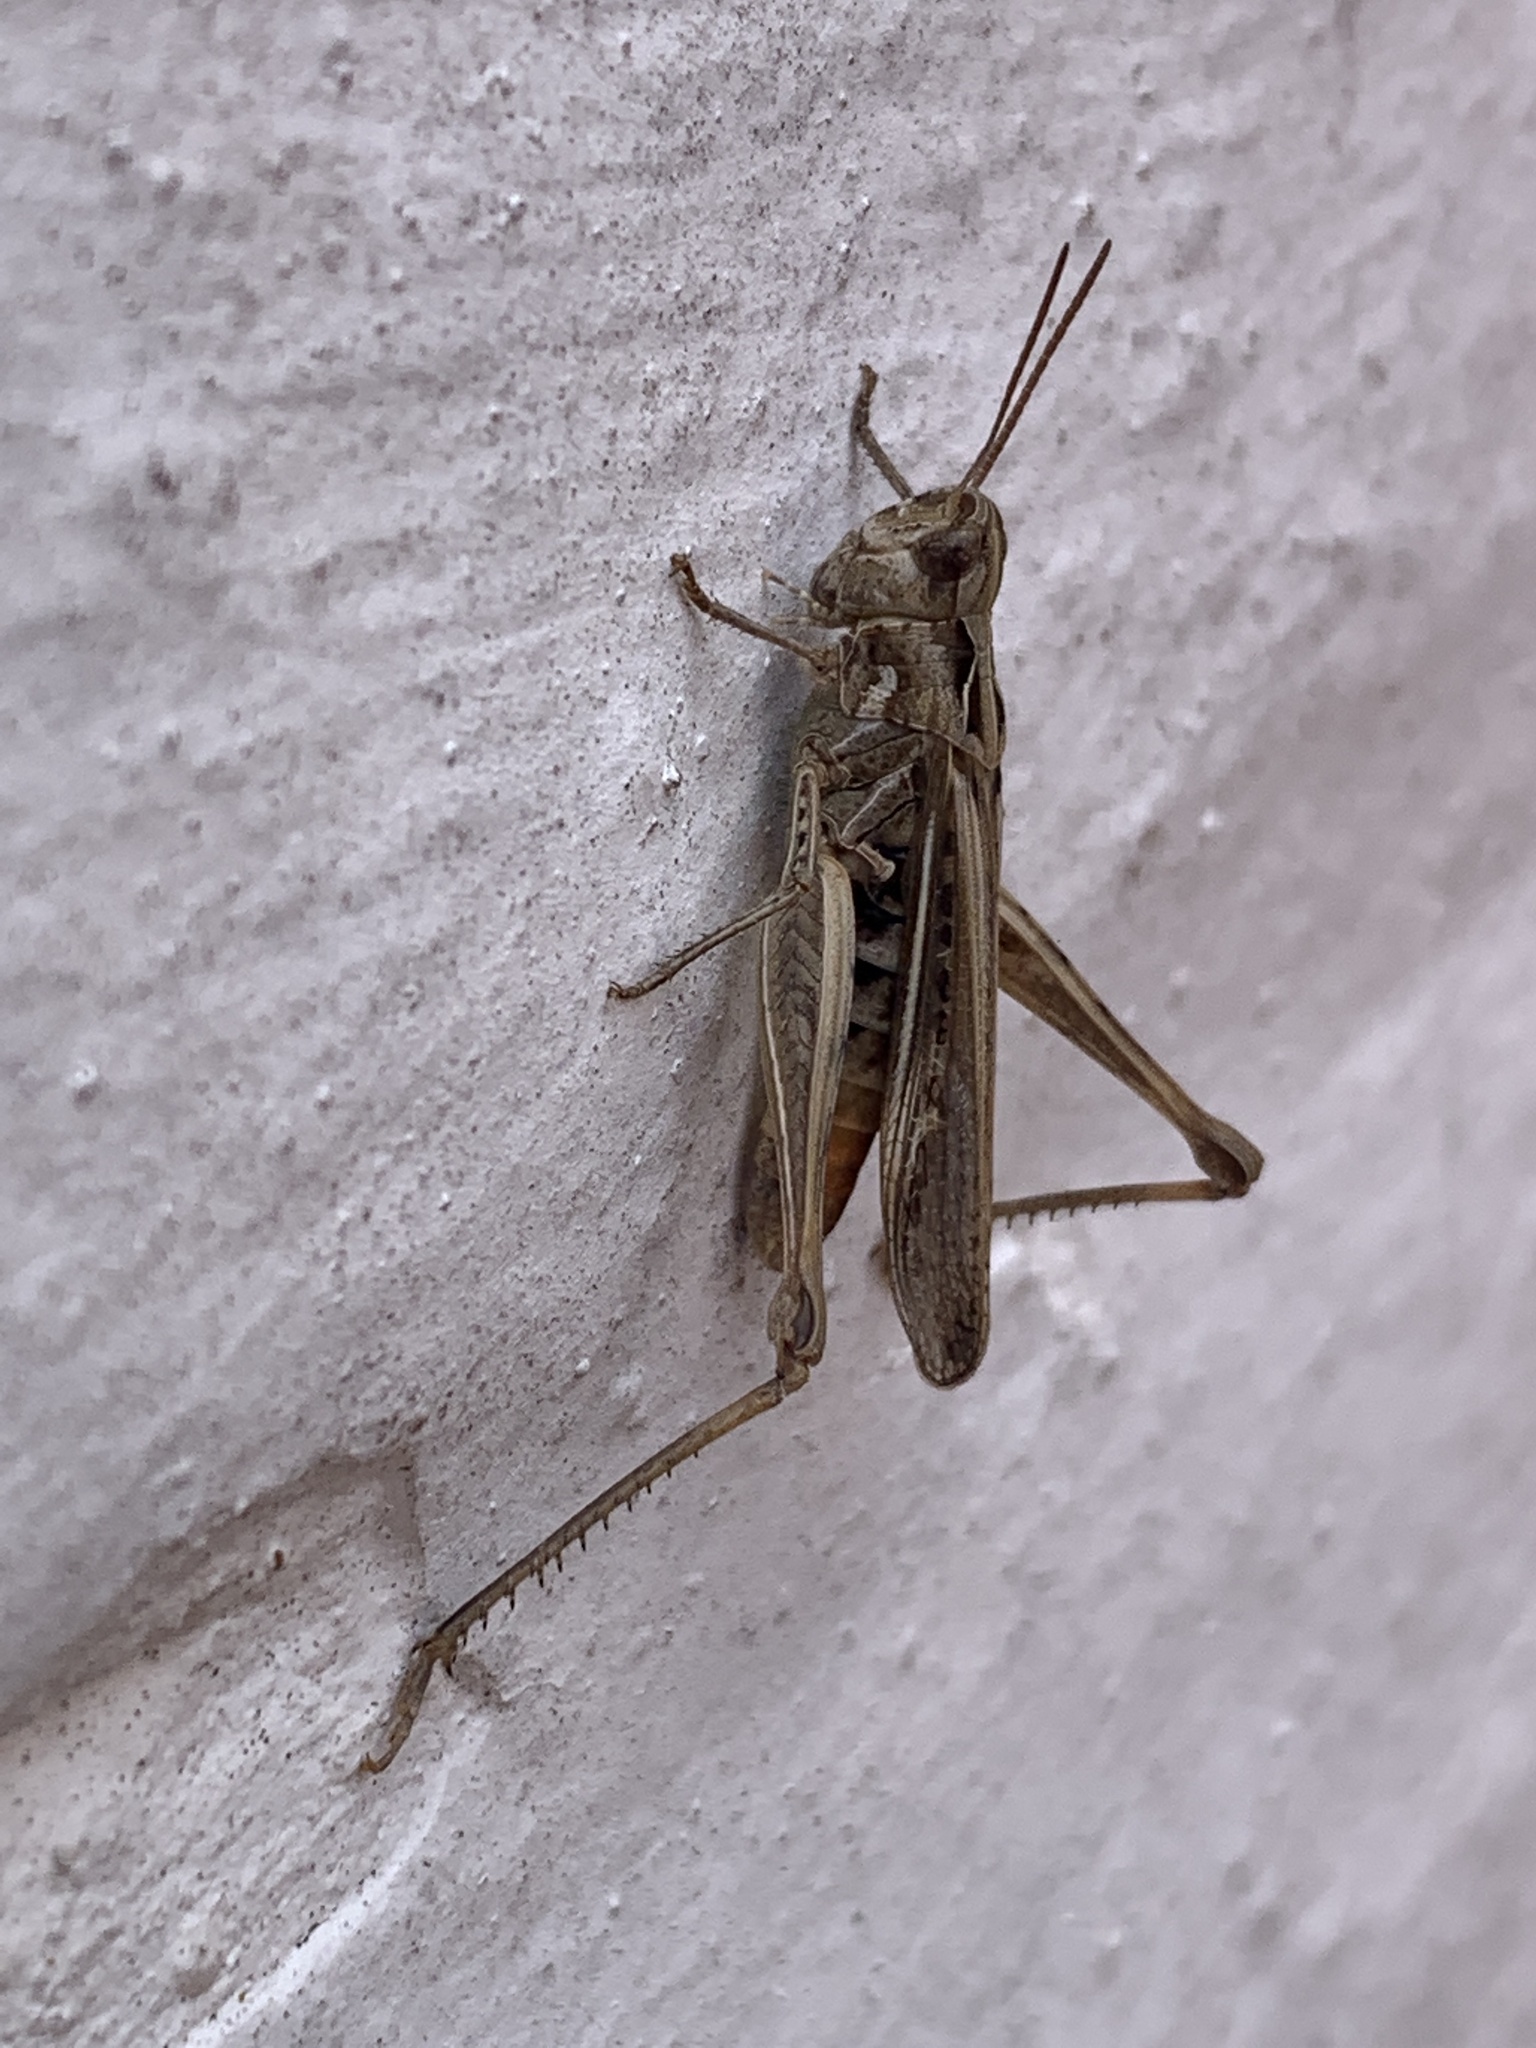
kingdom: Animalia
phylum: Arthropoda
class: Insecta
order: Orthoptera
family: Acrididae
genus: Chorthippus
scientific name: Chorthippus brunneus
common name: Field grasshopper
